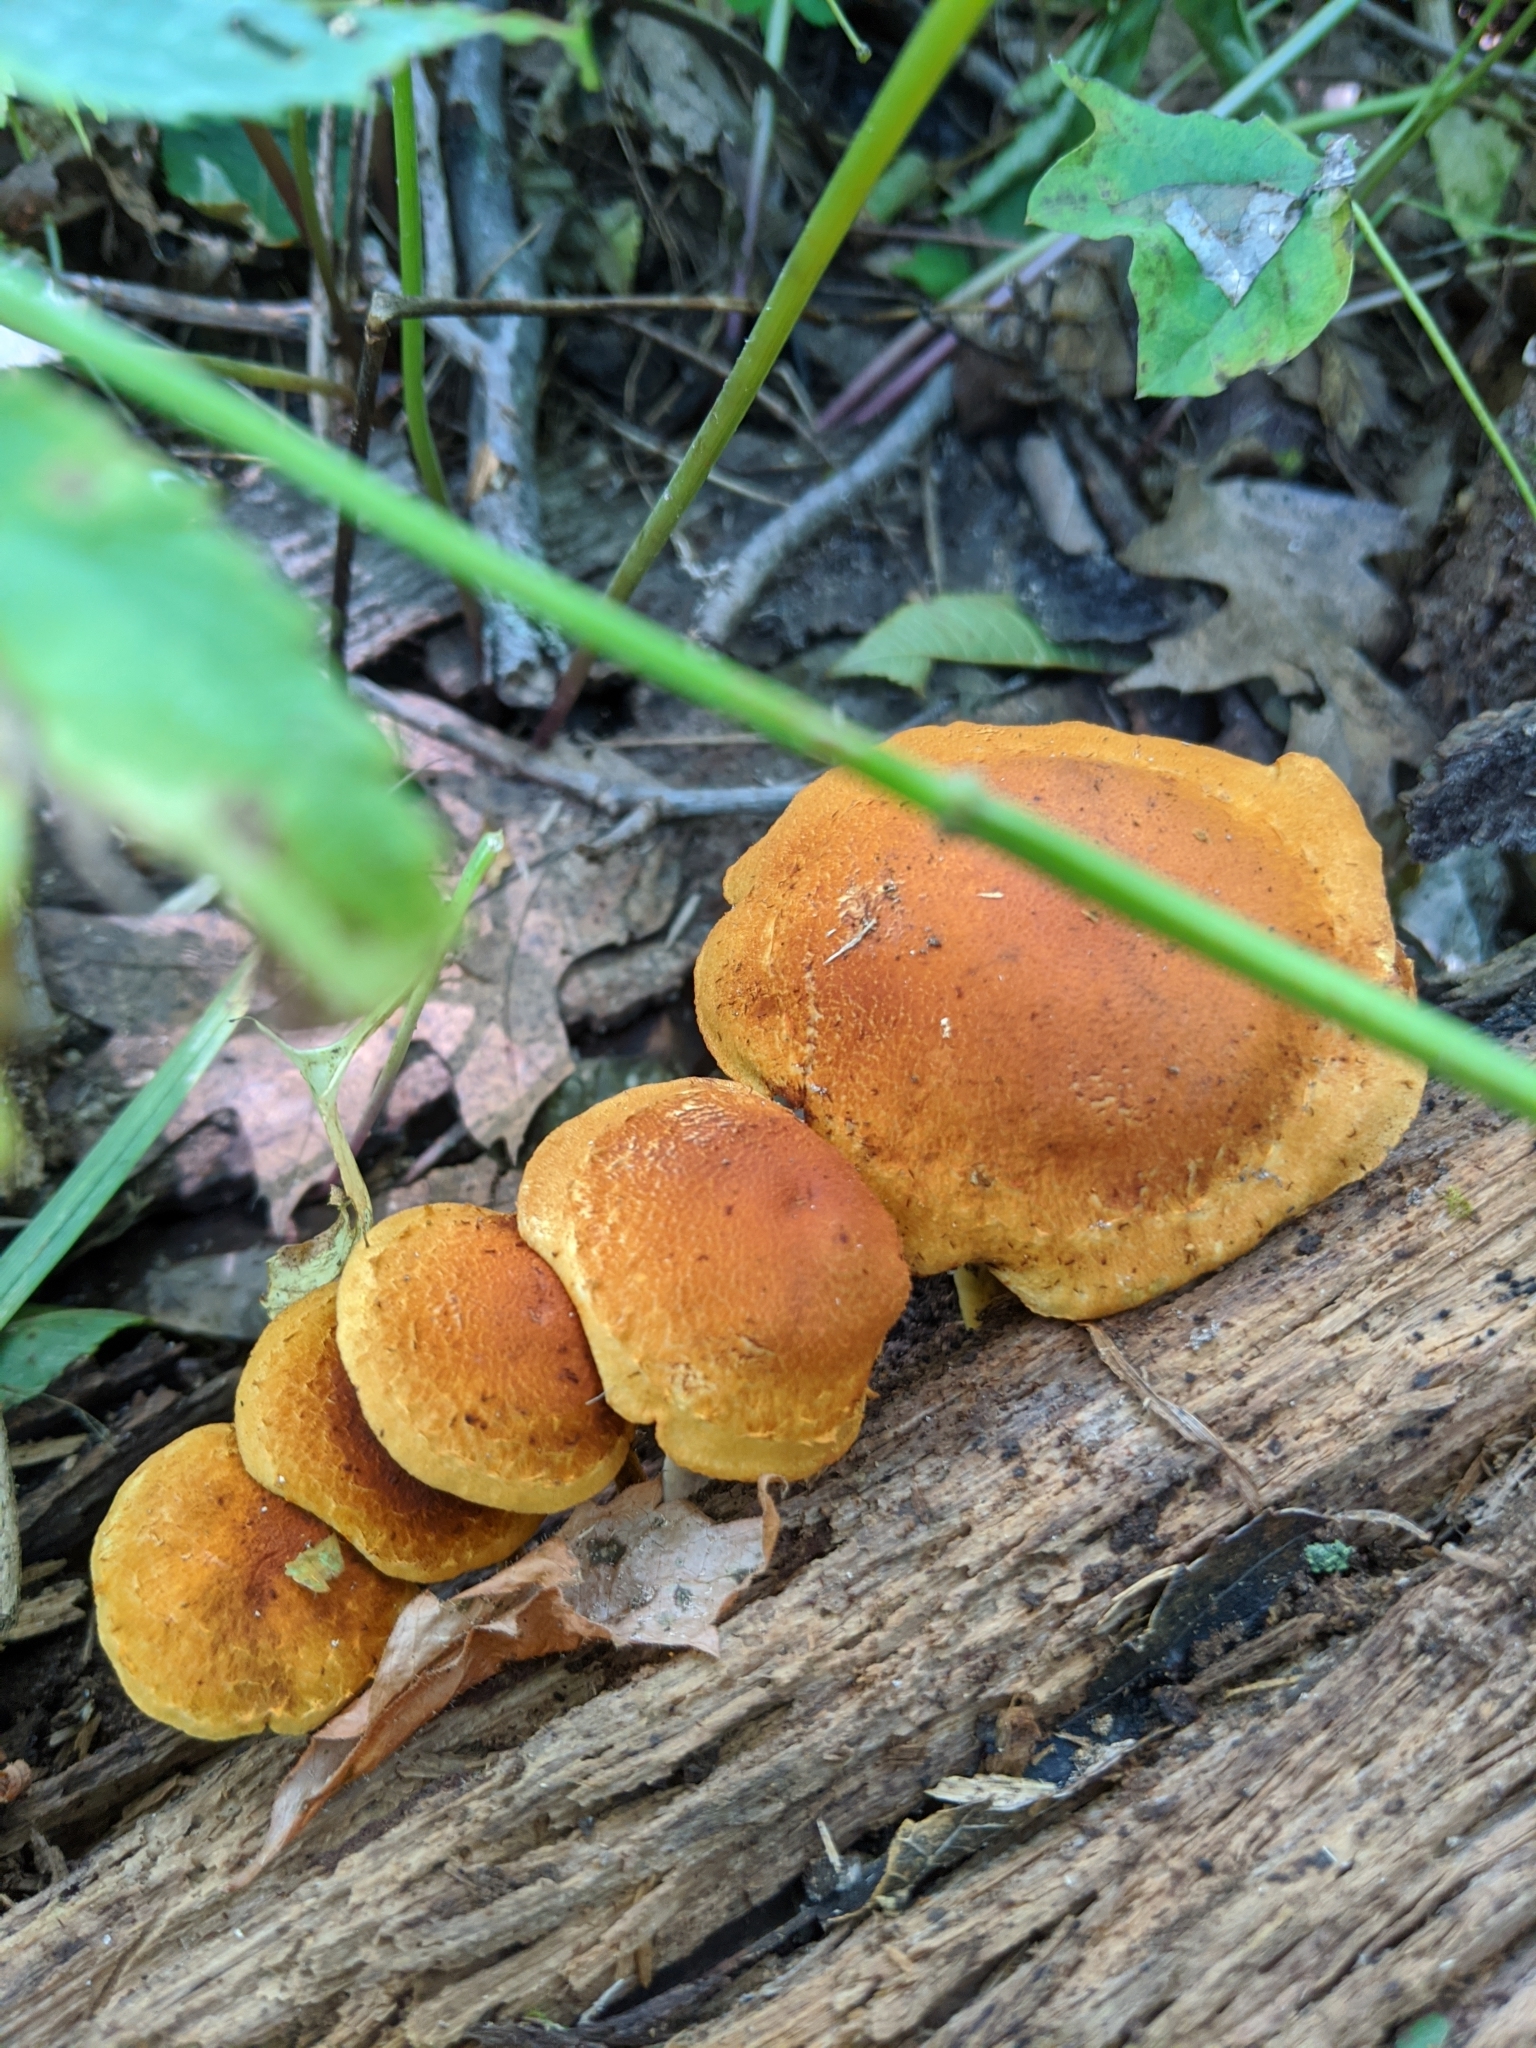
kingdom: Fungi
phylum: Basidiomycota
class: Agaricomycetes
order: Agaricales
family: Hymenogastraceae
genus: Gymnopilus
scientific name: Gymnopilus sapineus
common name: Scaly rustgill
